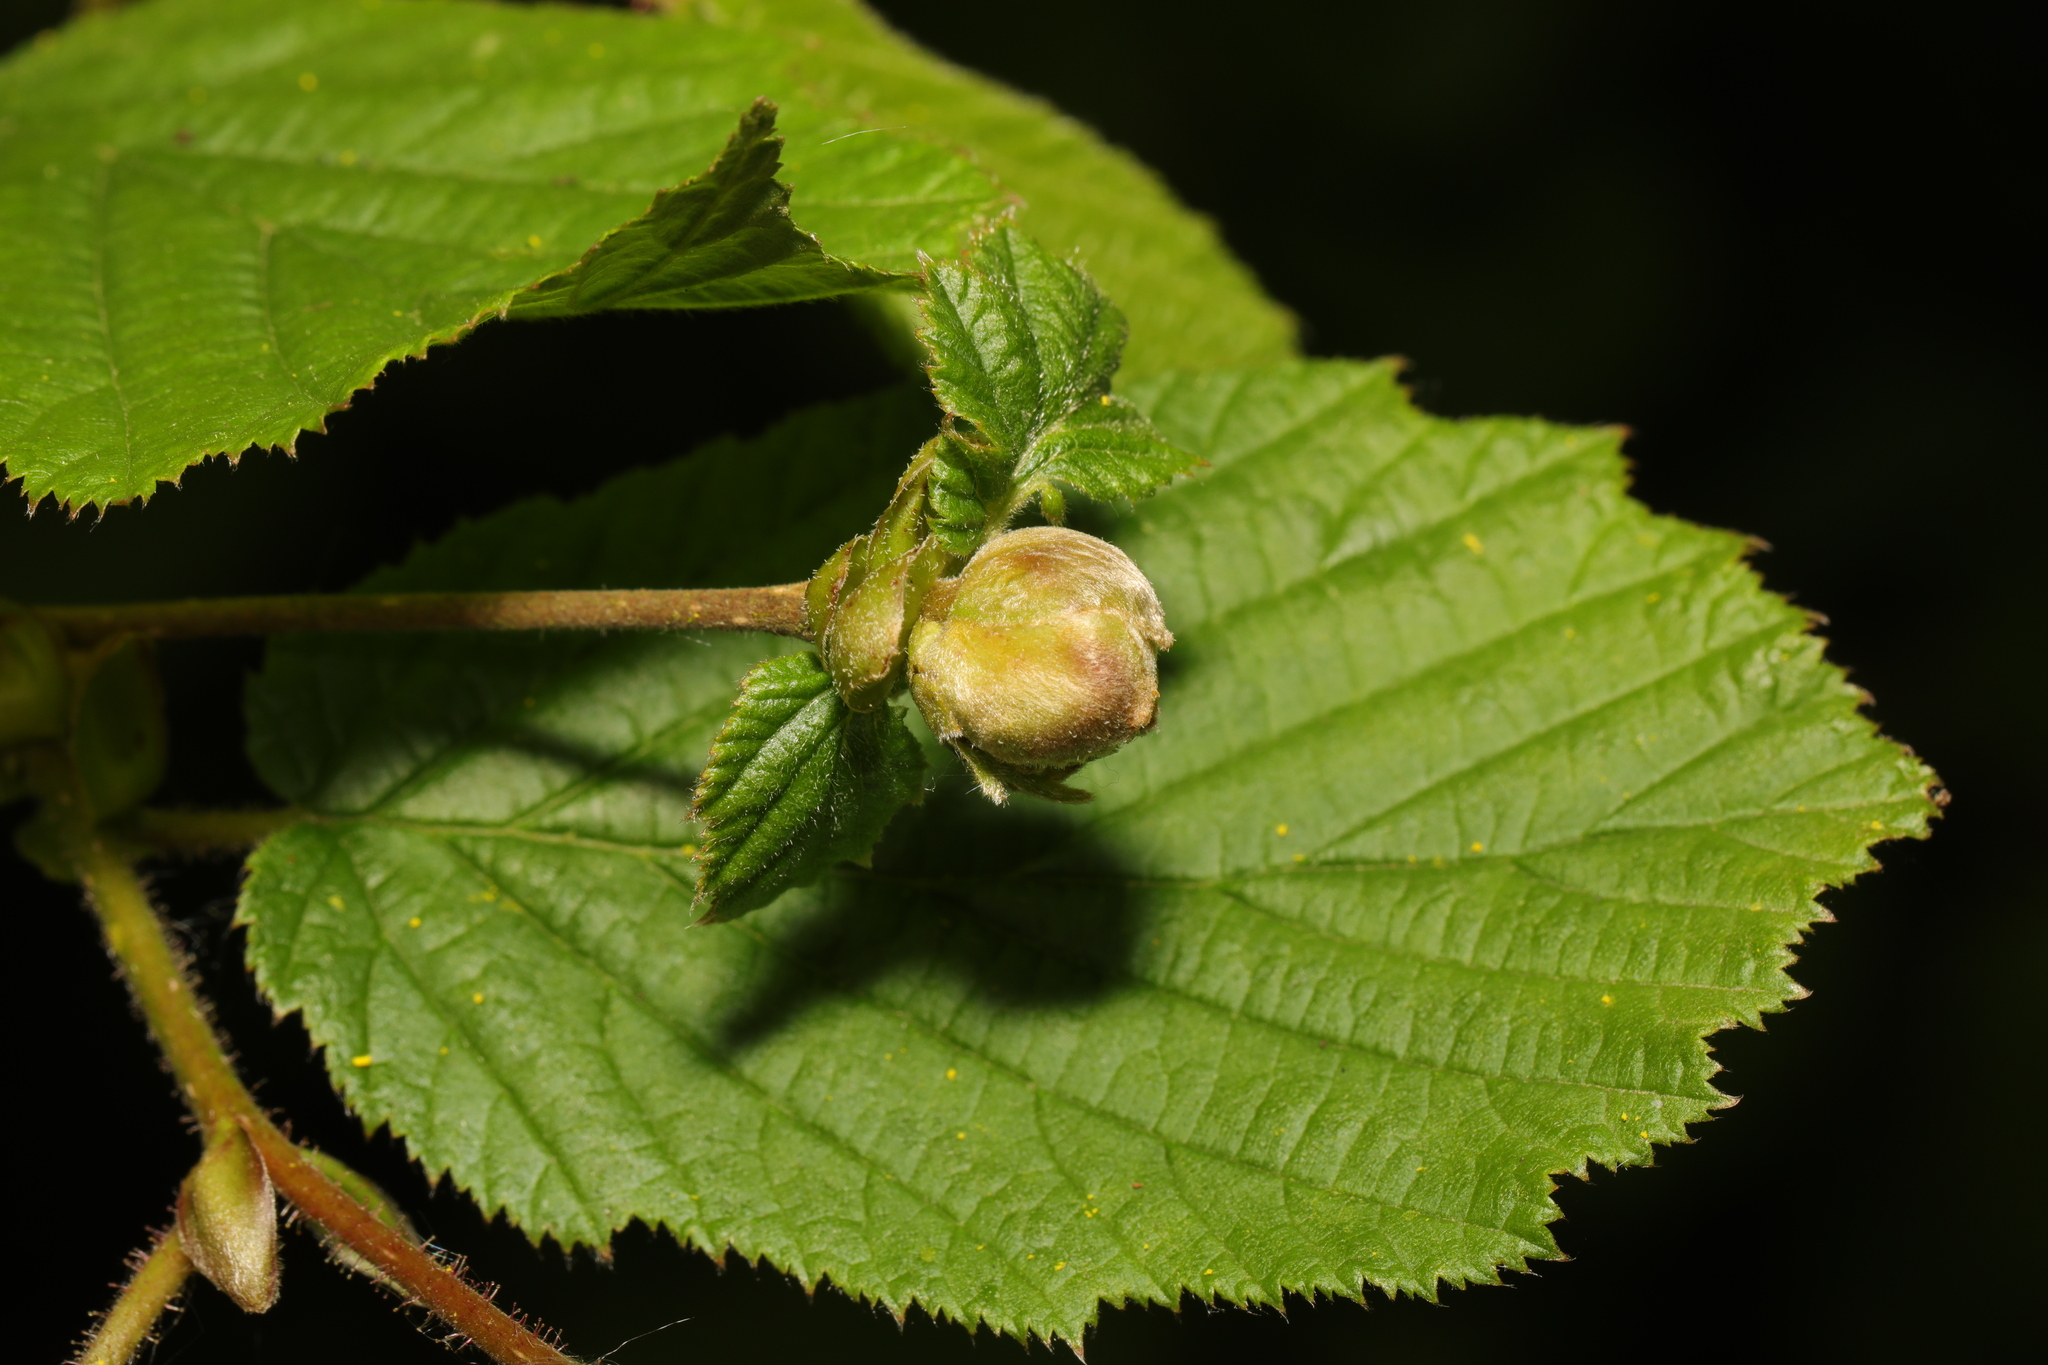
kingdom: Animalia
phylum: Arthropoda
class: Arachnida
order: Trombidiformes
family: Phytoptidae
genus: Phytoptus
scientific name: Phytoptus avellanae
